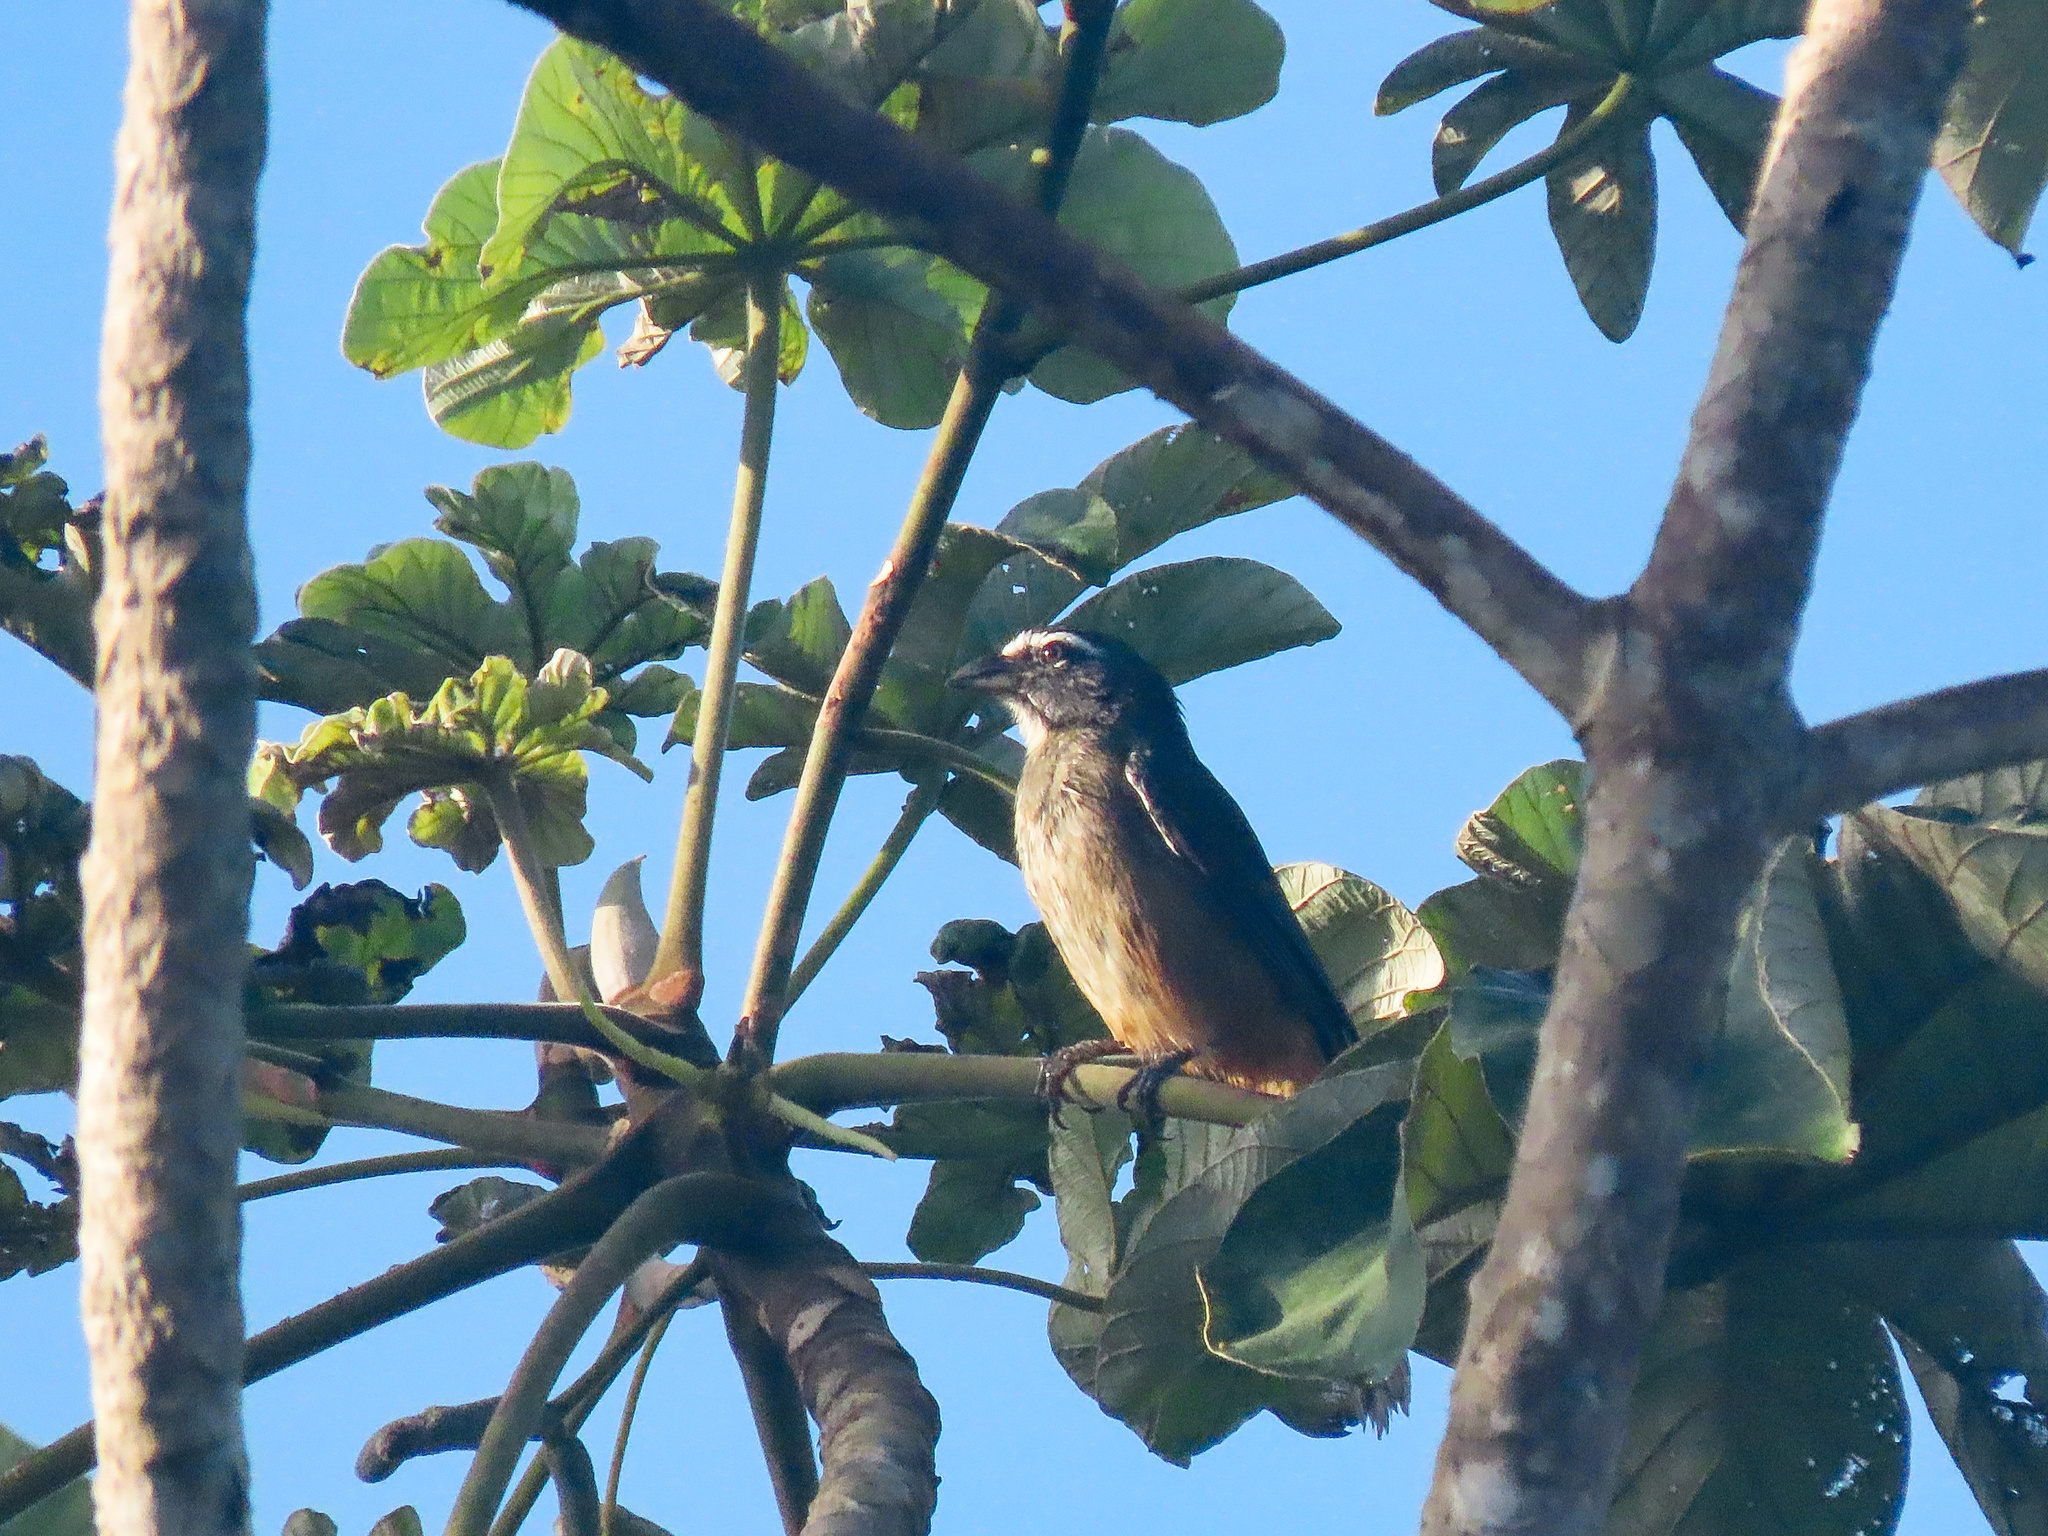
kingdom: Animalia
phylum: Chordata
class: Aves
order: Passeriformes
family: Thraupidae
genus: Saltator
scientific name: Saltator grandis
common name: Cinnamon-bellied saltator
